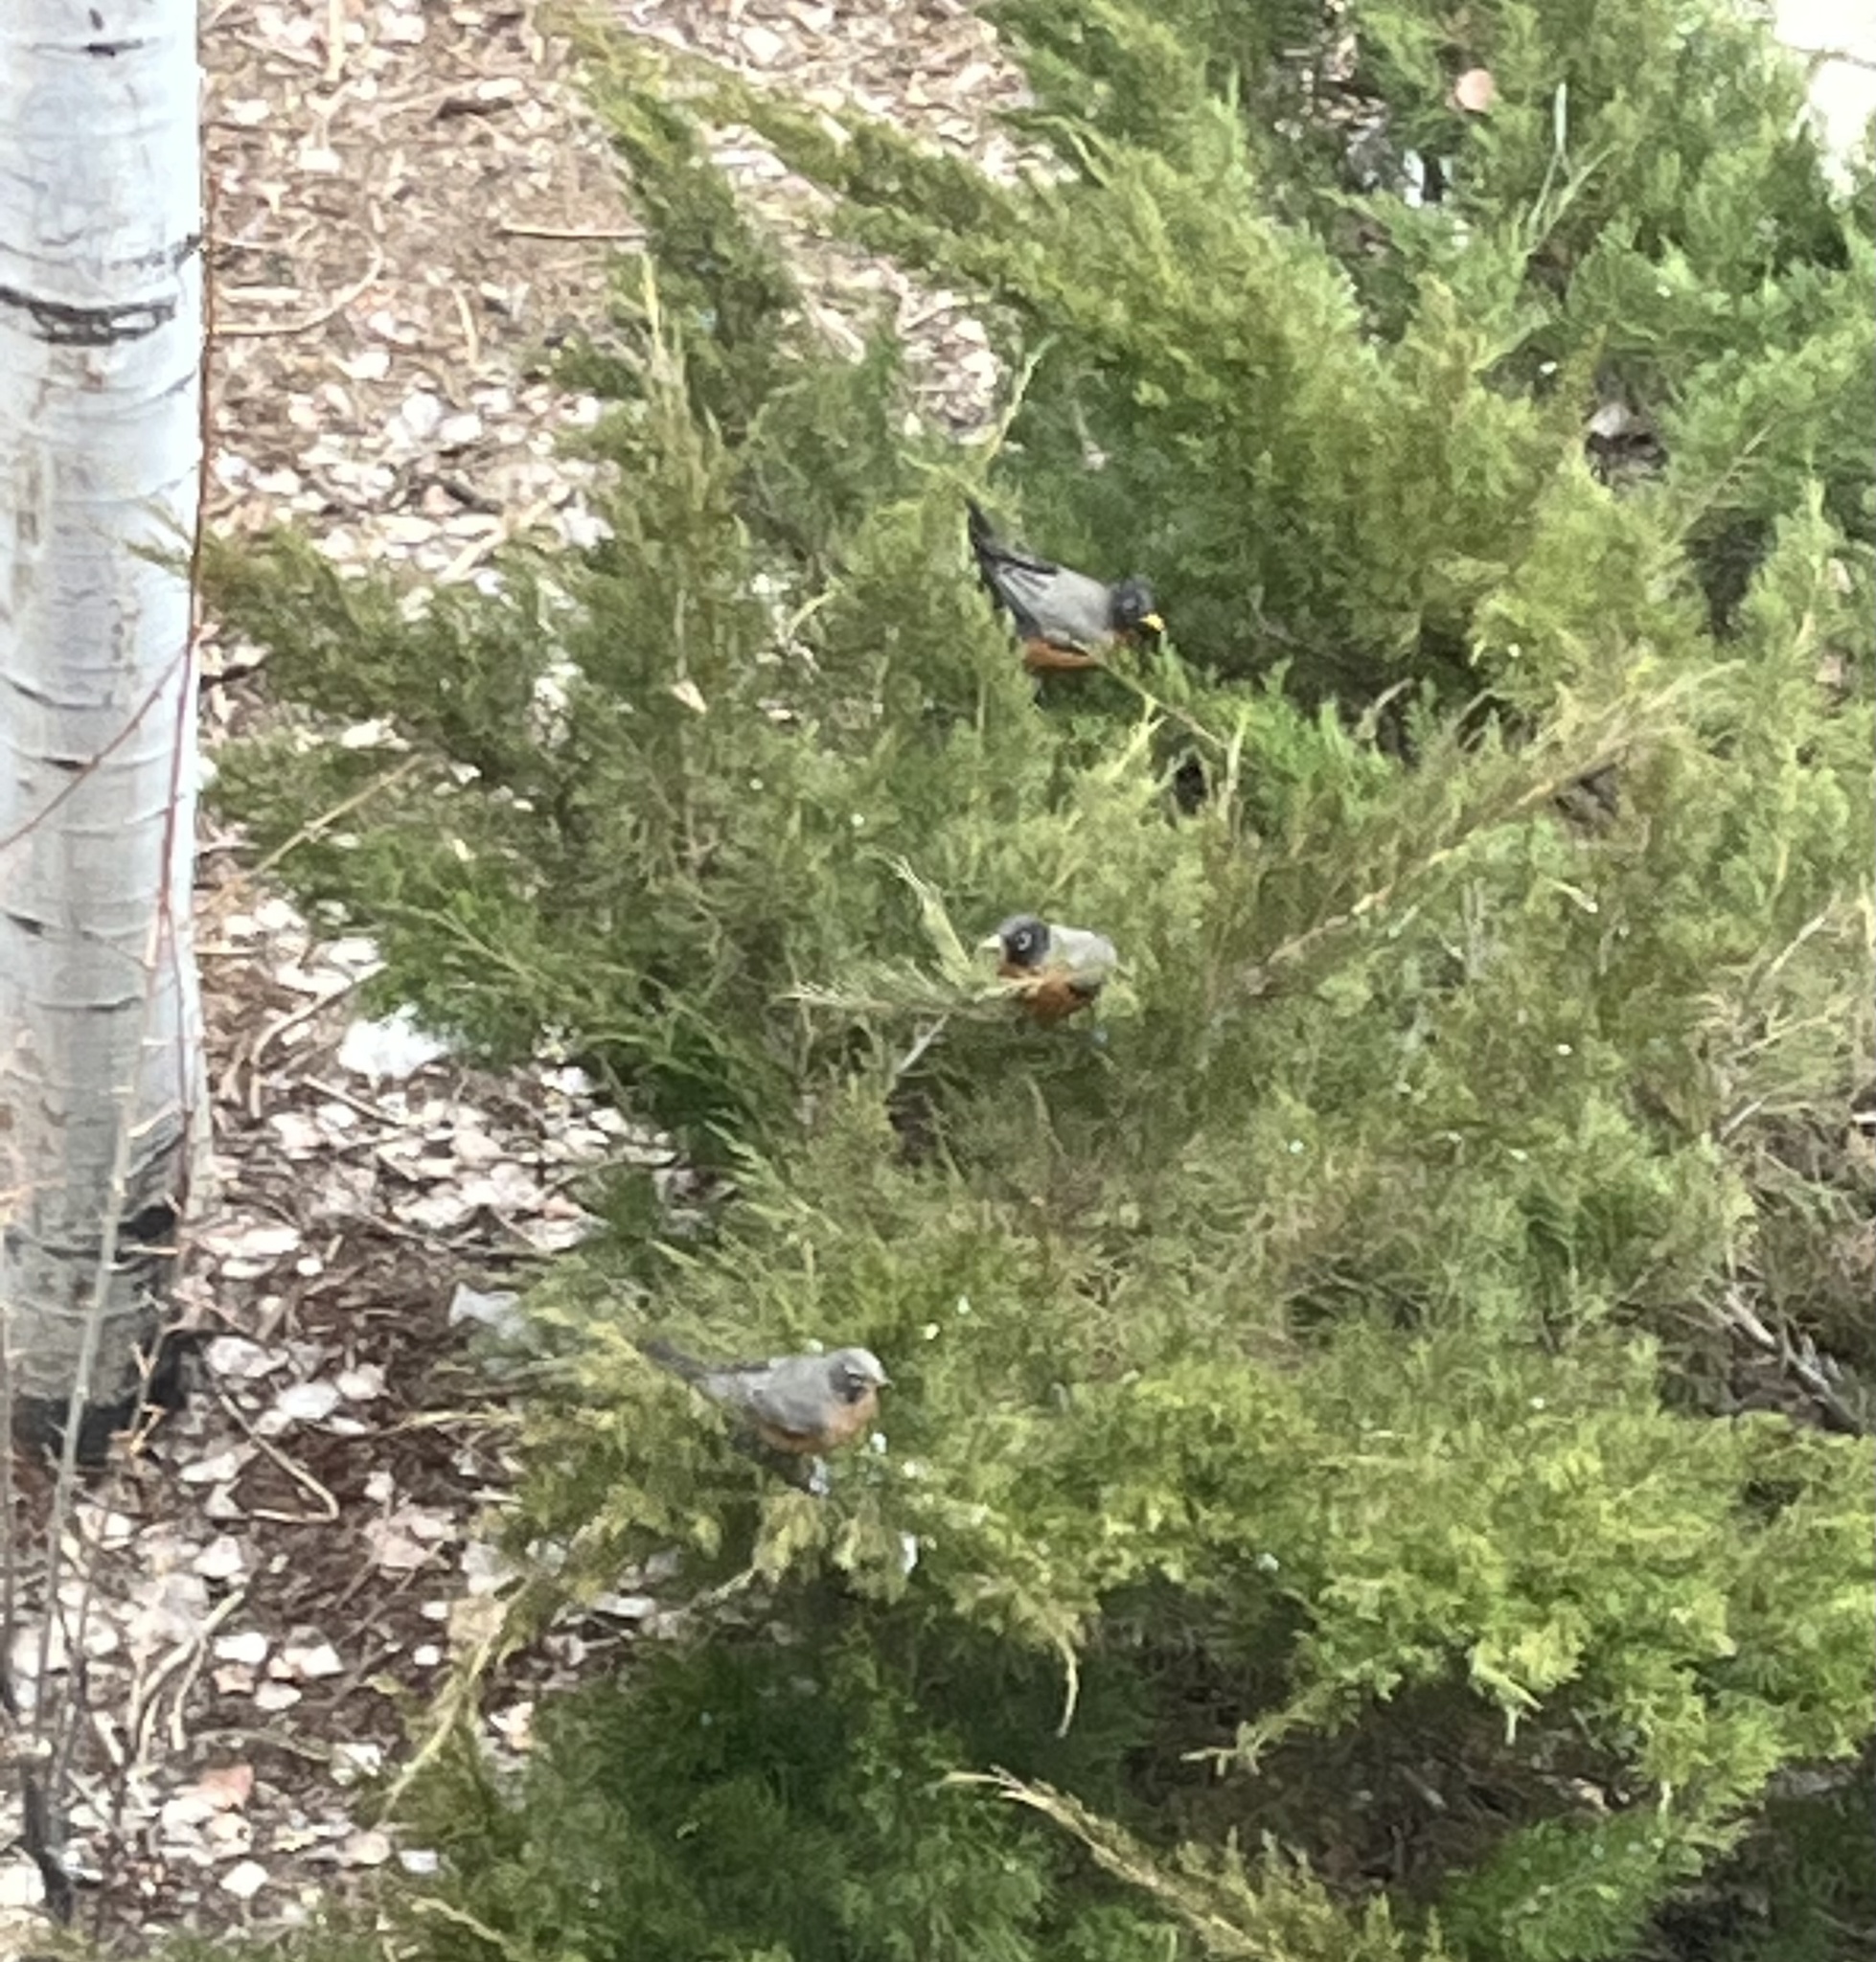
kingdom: Animalia
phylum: Chordata
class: Aves
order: Passeriformes
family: Turdidae
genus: Turdus
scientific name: Turdus migratorius
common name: American robin
